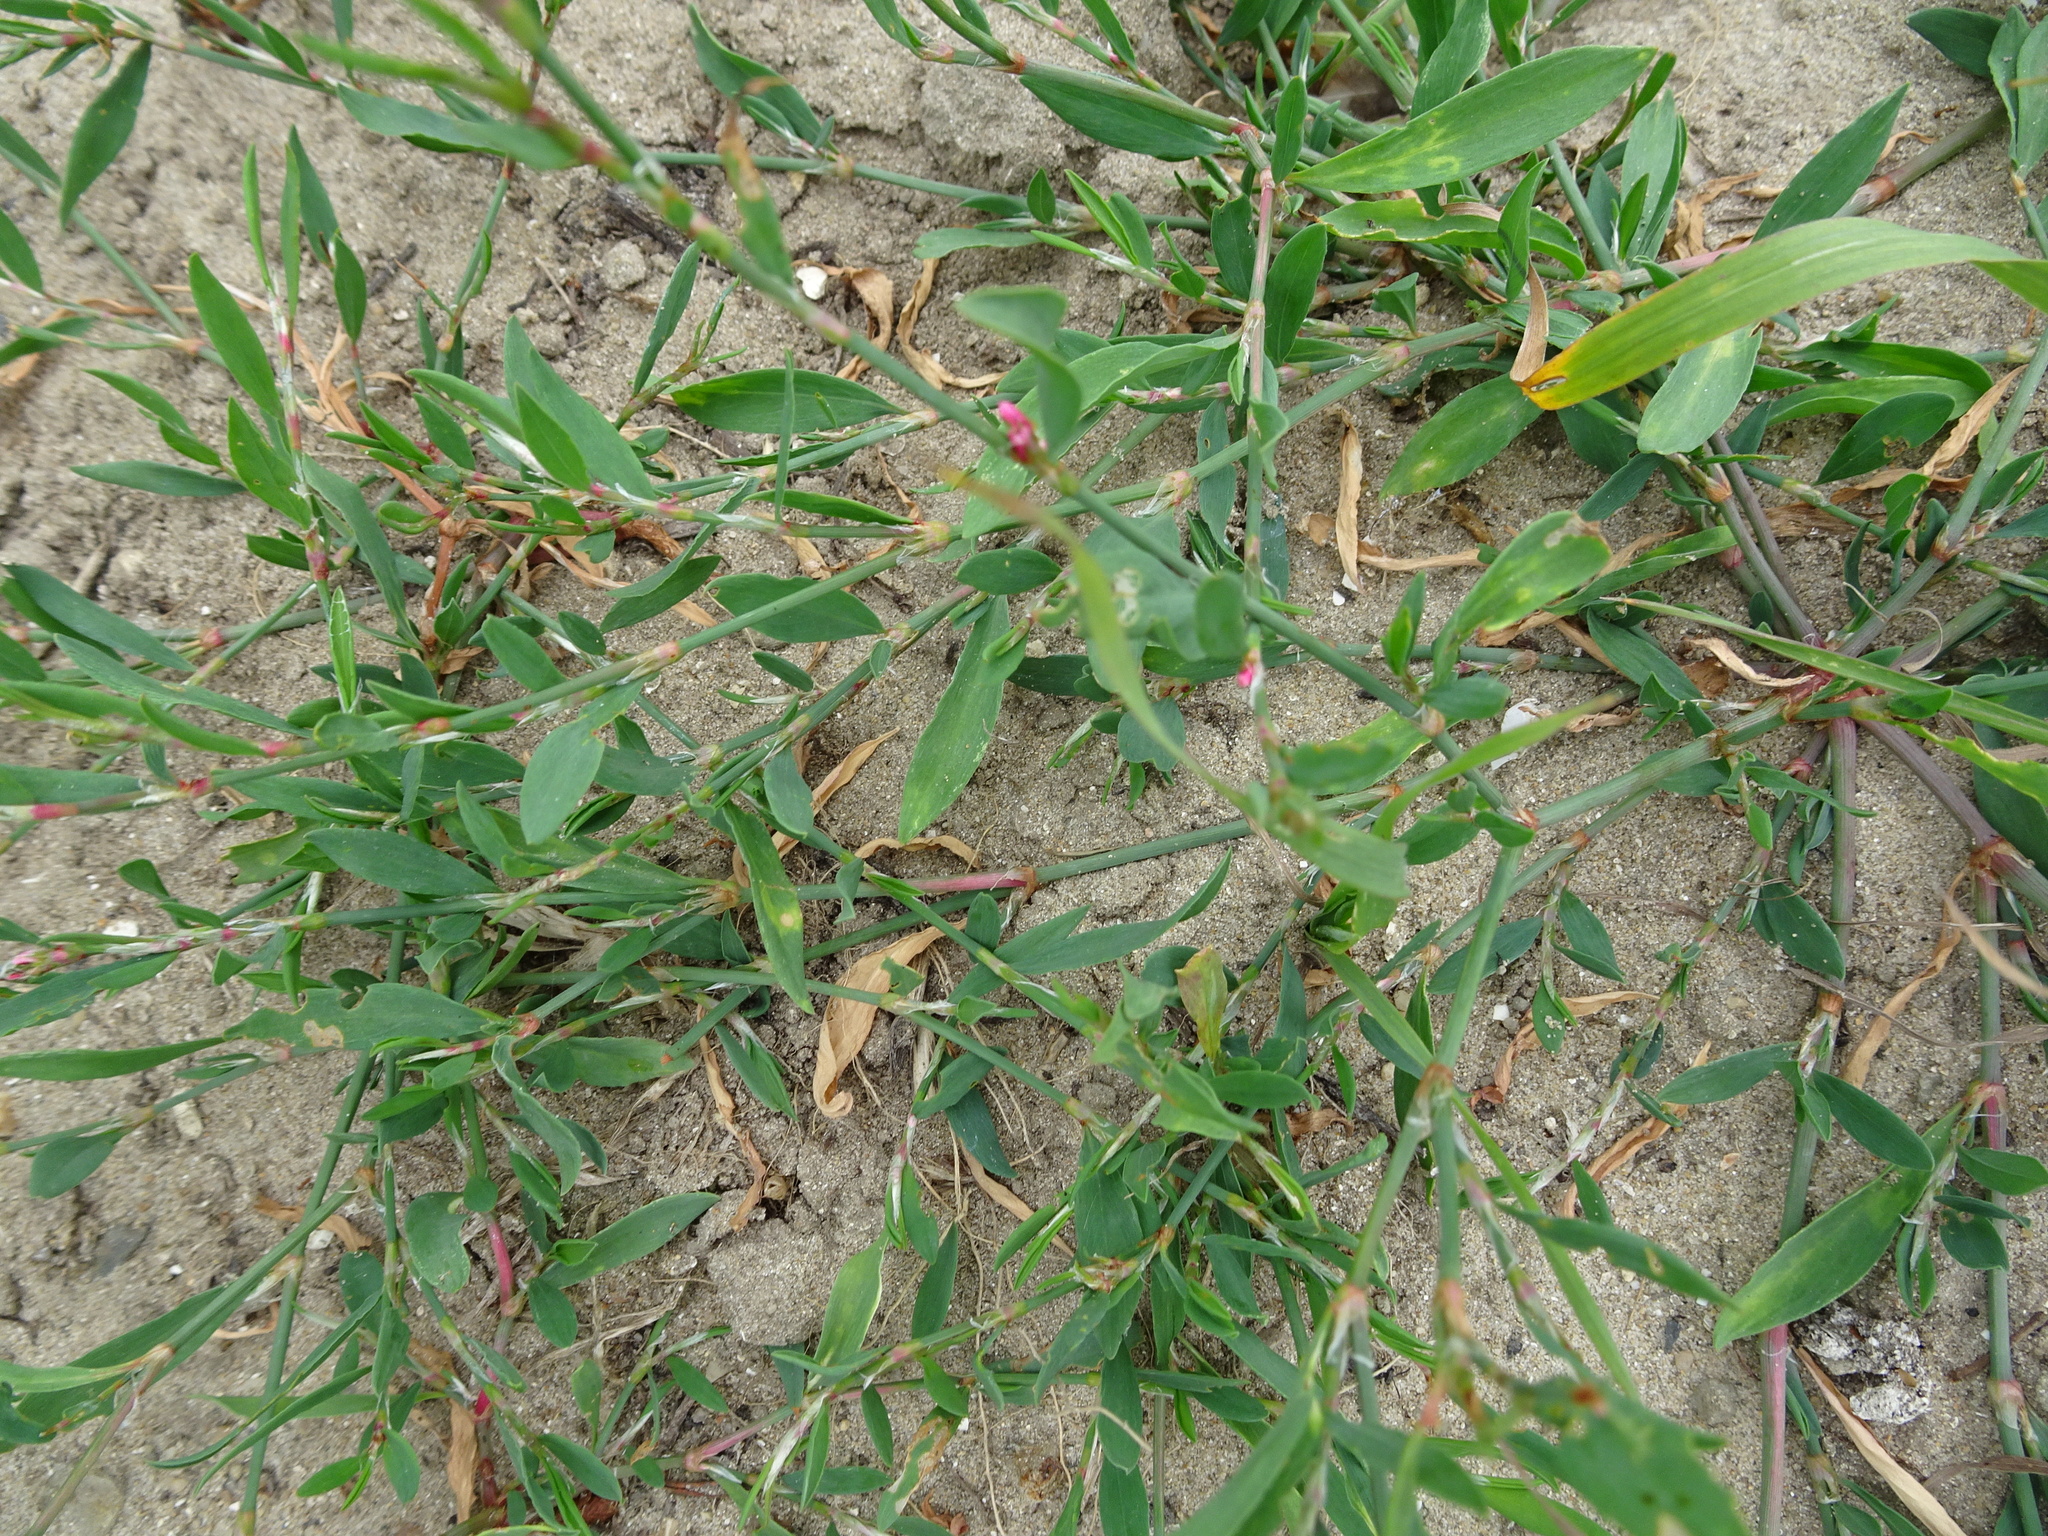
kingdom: Plantae
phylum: Tracheophyta
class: Magnoliopsida
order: Caryophyllales
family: Polygonaceae
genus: Polygonum
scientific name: Polygonum aviculare
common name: Prostrate knotweed
